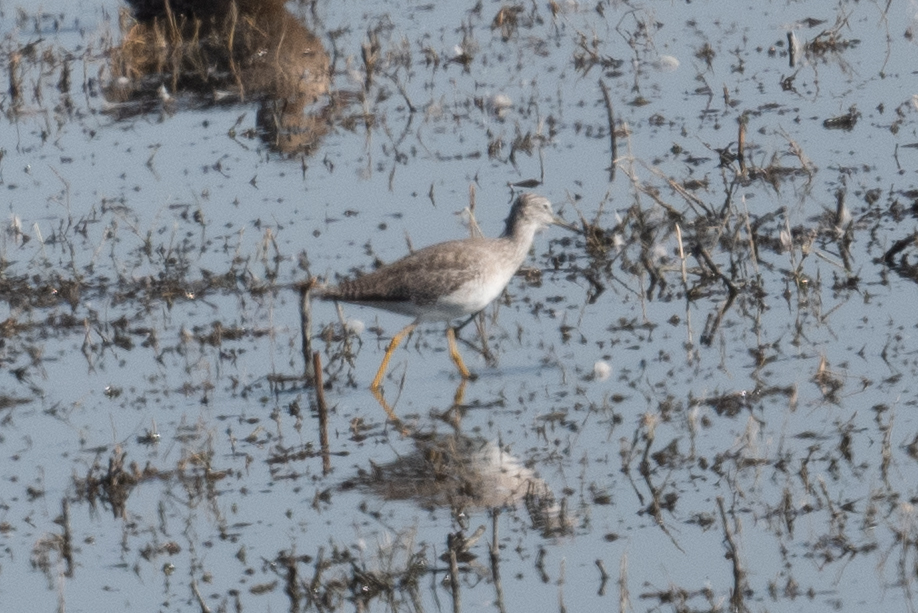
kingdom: Animalia
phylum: Chordata
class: Aves
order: Charadriiformes
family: Scolopacidae
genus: Tringa
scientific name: Tringa melanoleuca
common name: Greater yellowlegs
